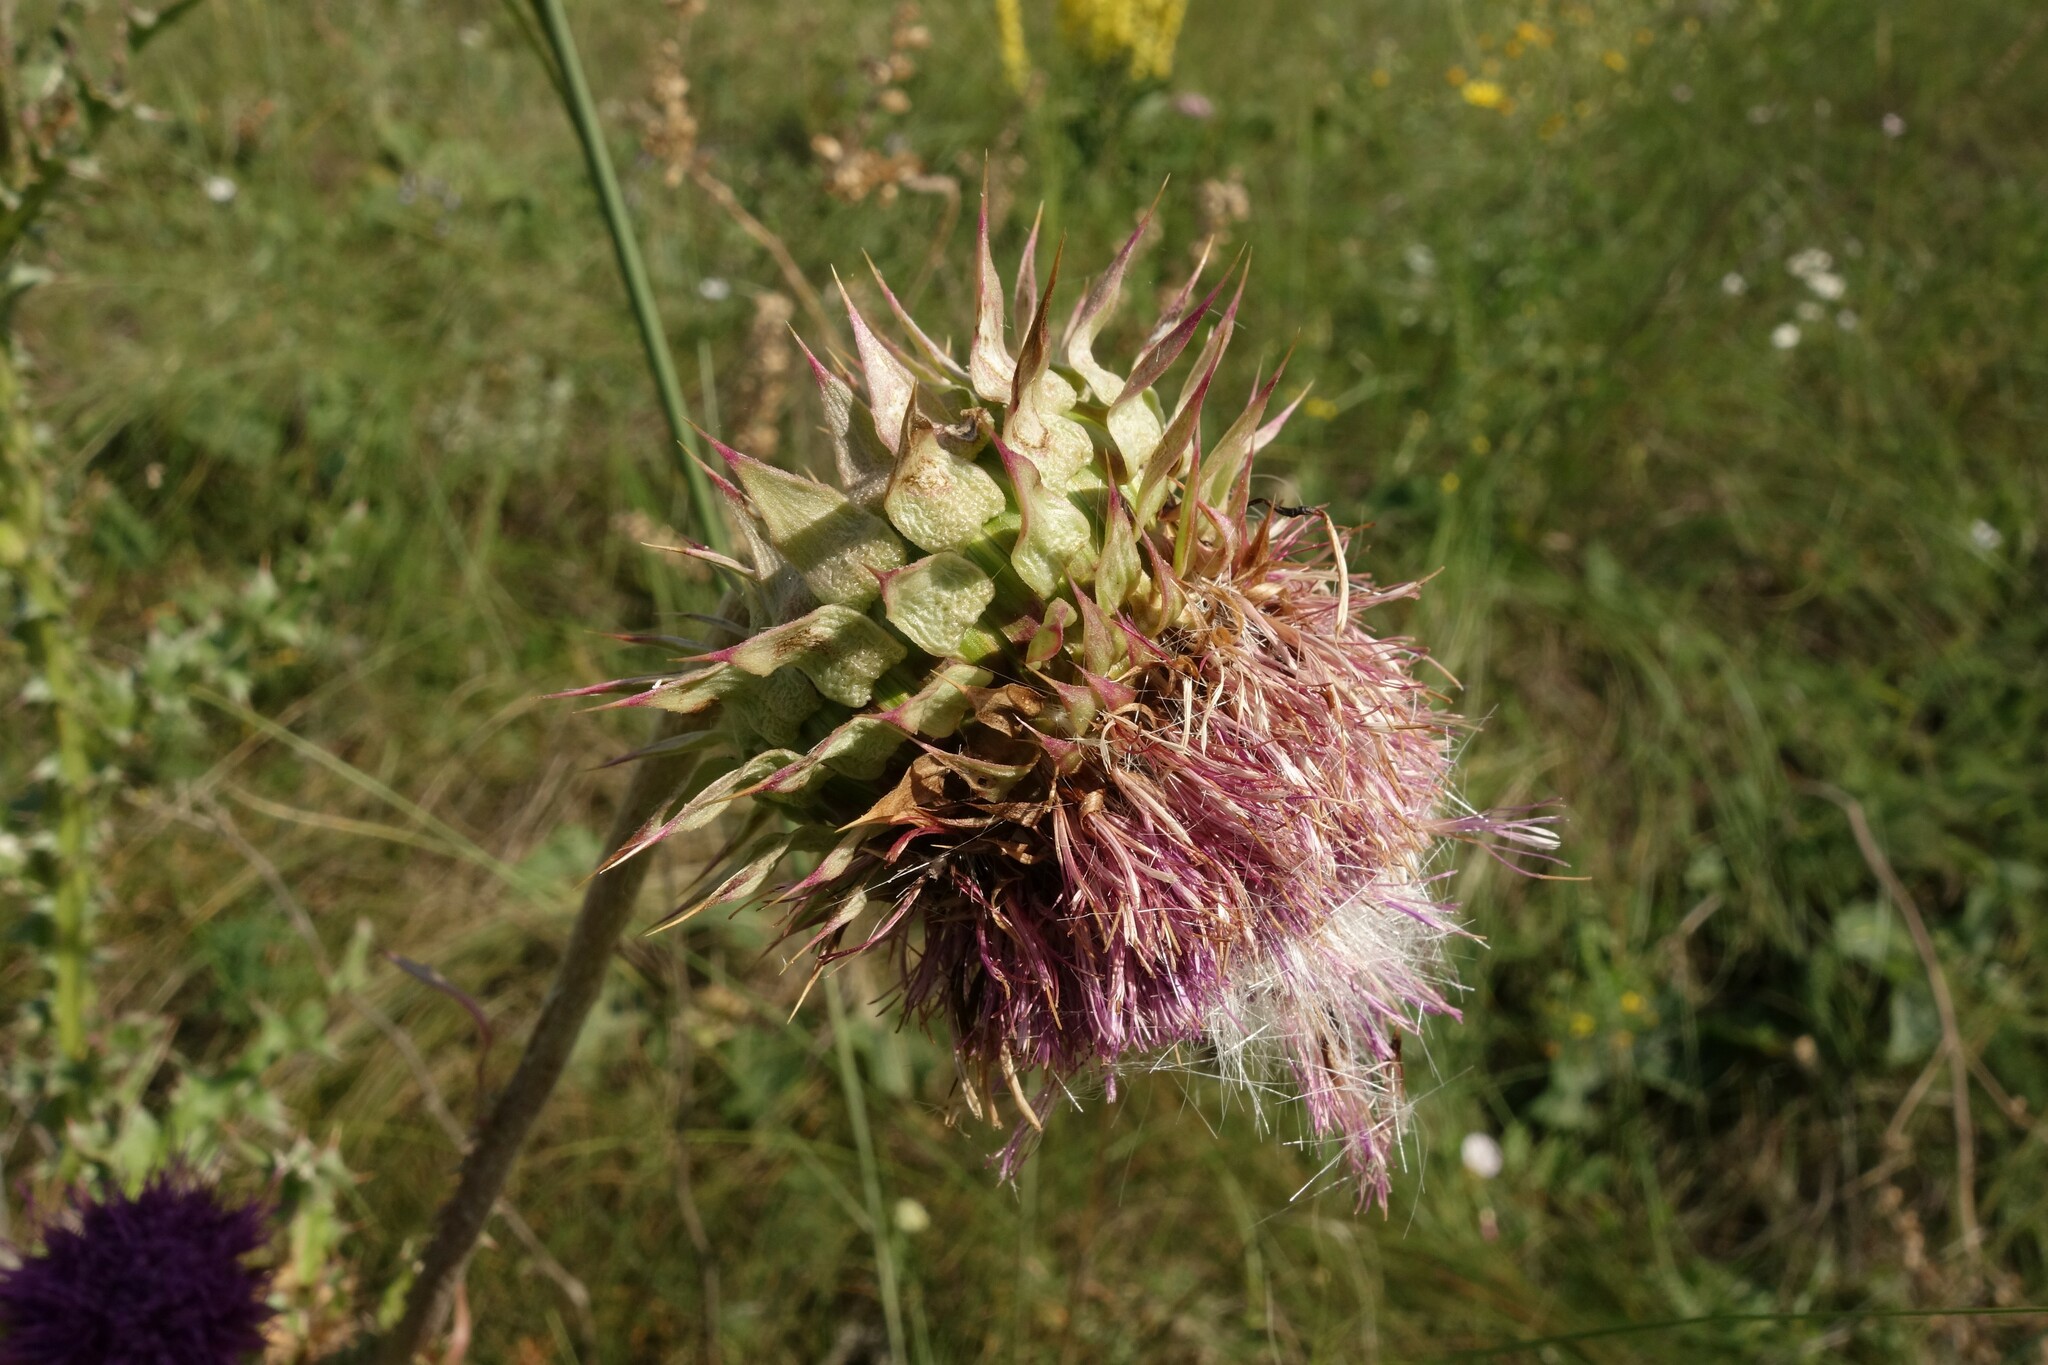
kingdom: Plantae
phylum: Tracheophyta
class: Magnoliopsida
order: Asterales
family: Asteraceae
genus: Carduus
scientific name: Carduus nutans
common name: Musk thistle
